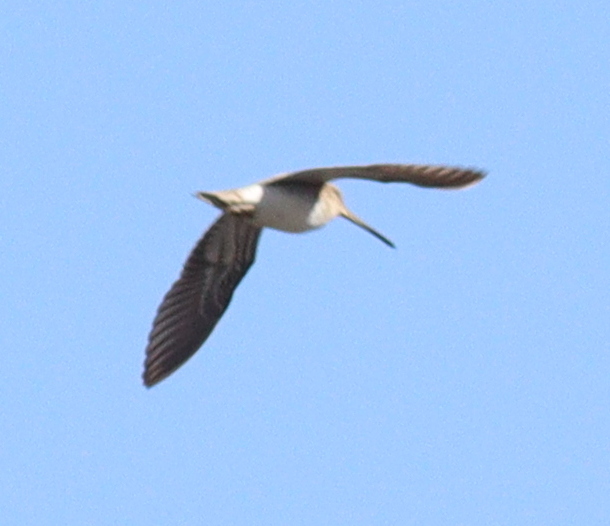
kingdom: Animalia
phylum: Chordata
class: Aves
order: Charadriiformes
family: Scolopacidae
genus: Gallinago
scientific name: Gallinago gallinago
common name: Common snipe
